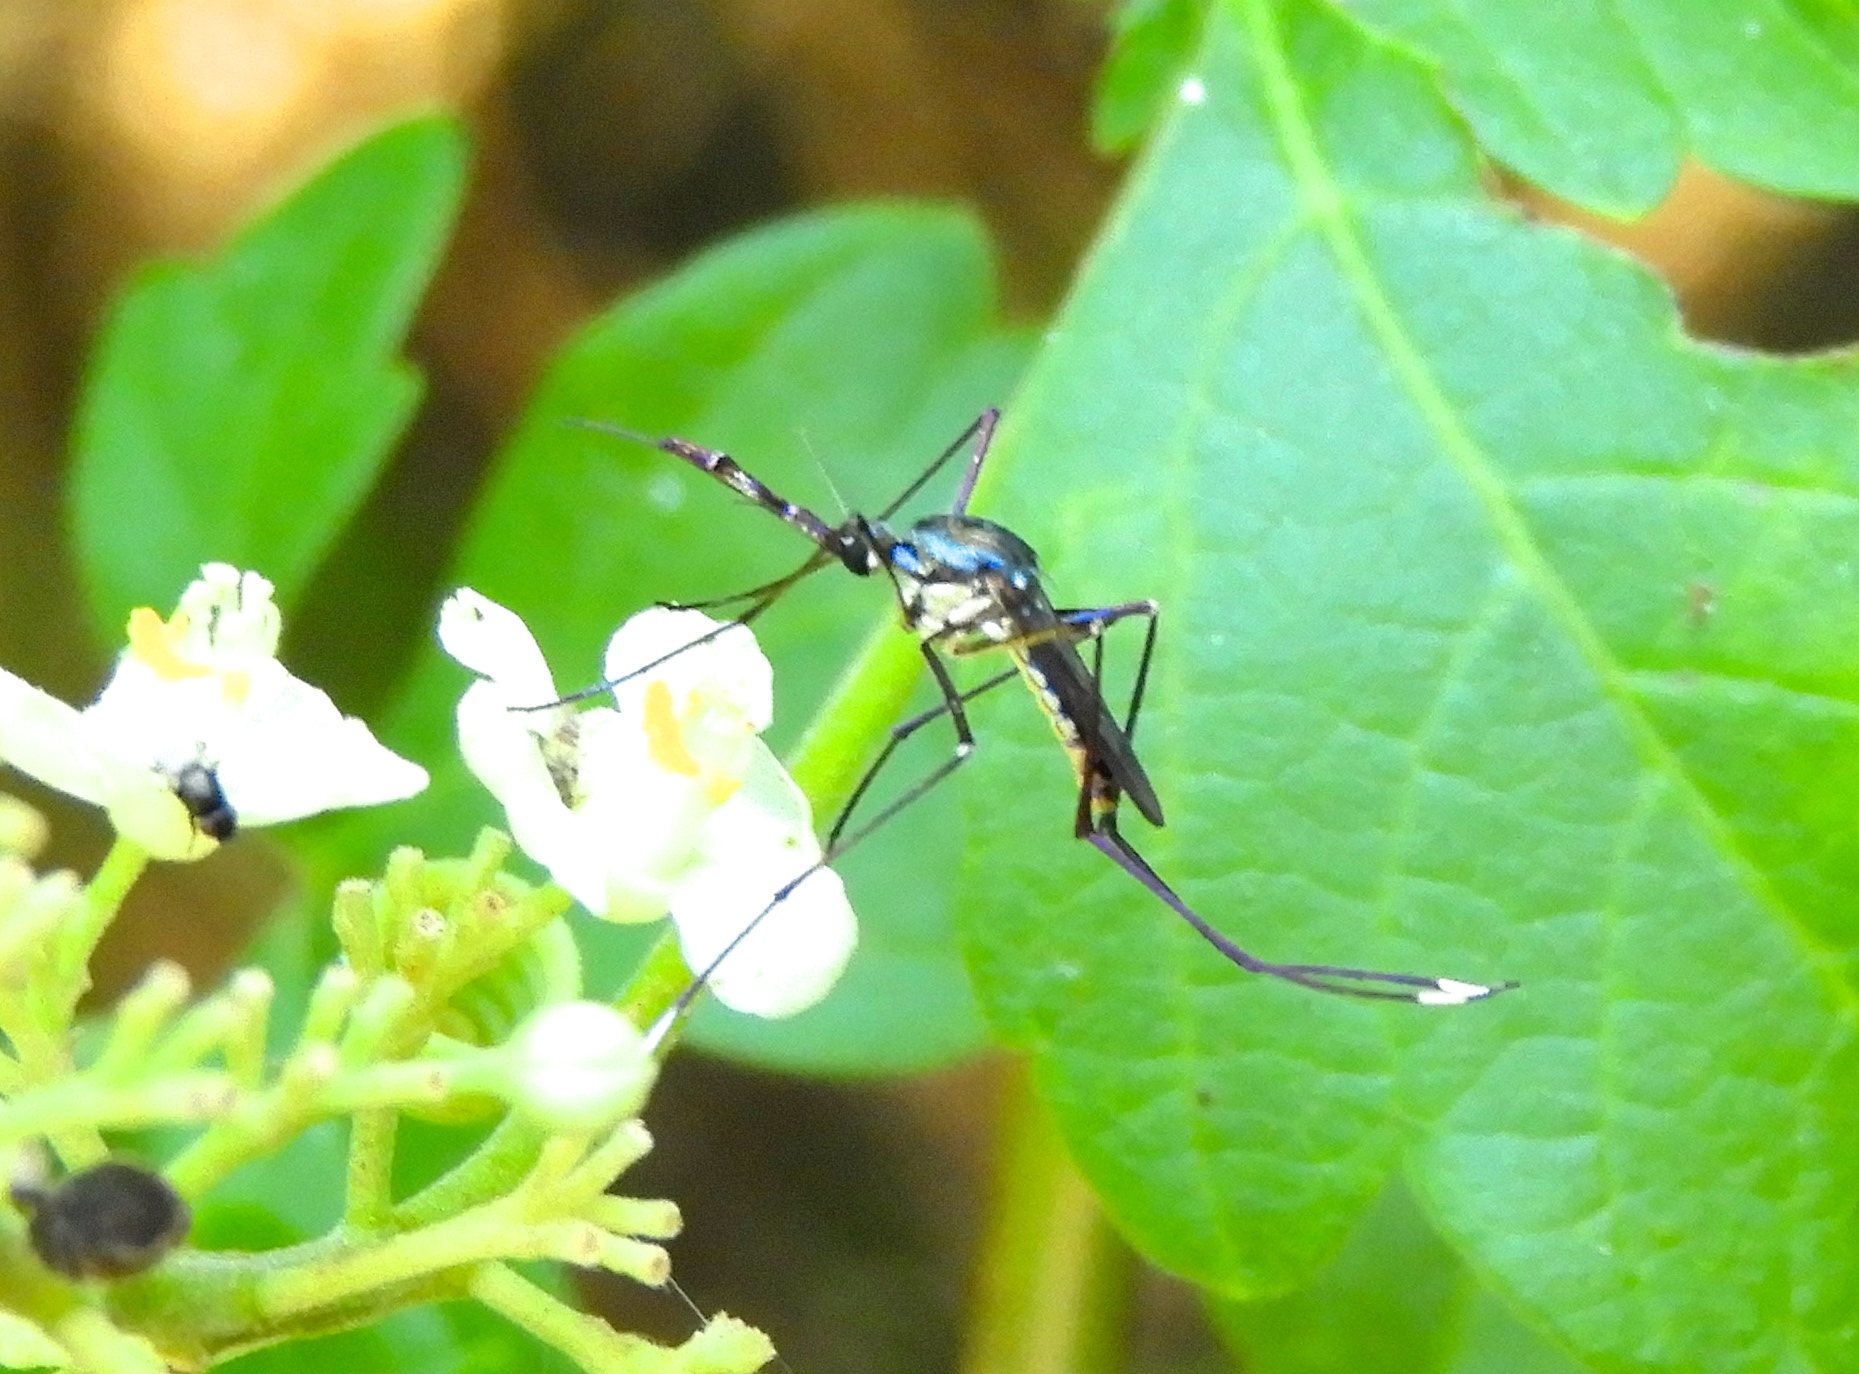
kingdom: Animalia
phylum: Arthropoda
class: Insecta
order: Diptera
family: Culicidae
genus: Toxorhynchites
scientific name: Toxorhynchites rutilus
